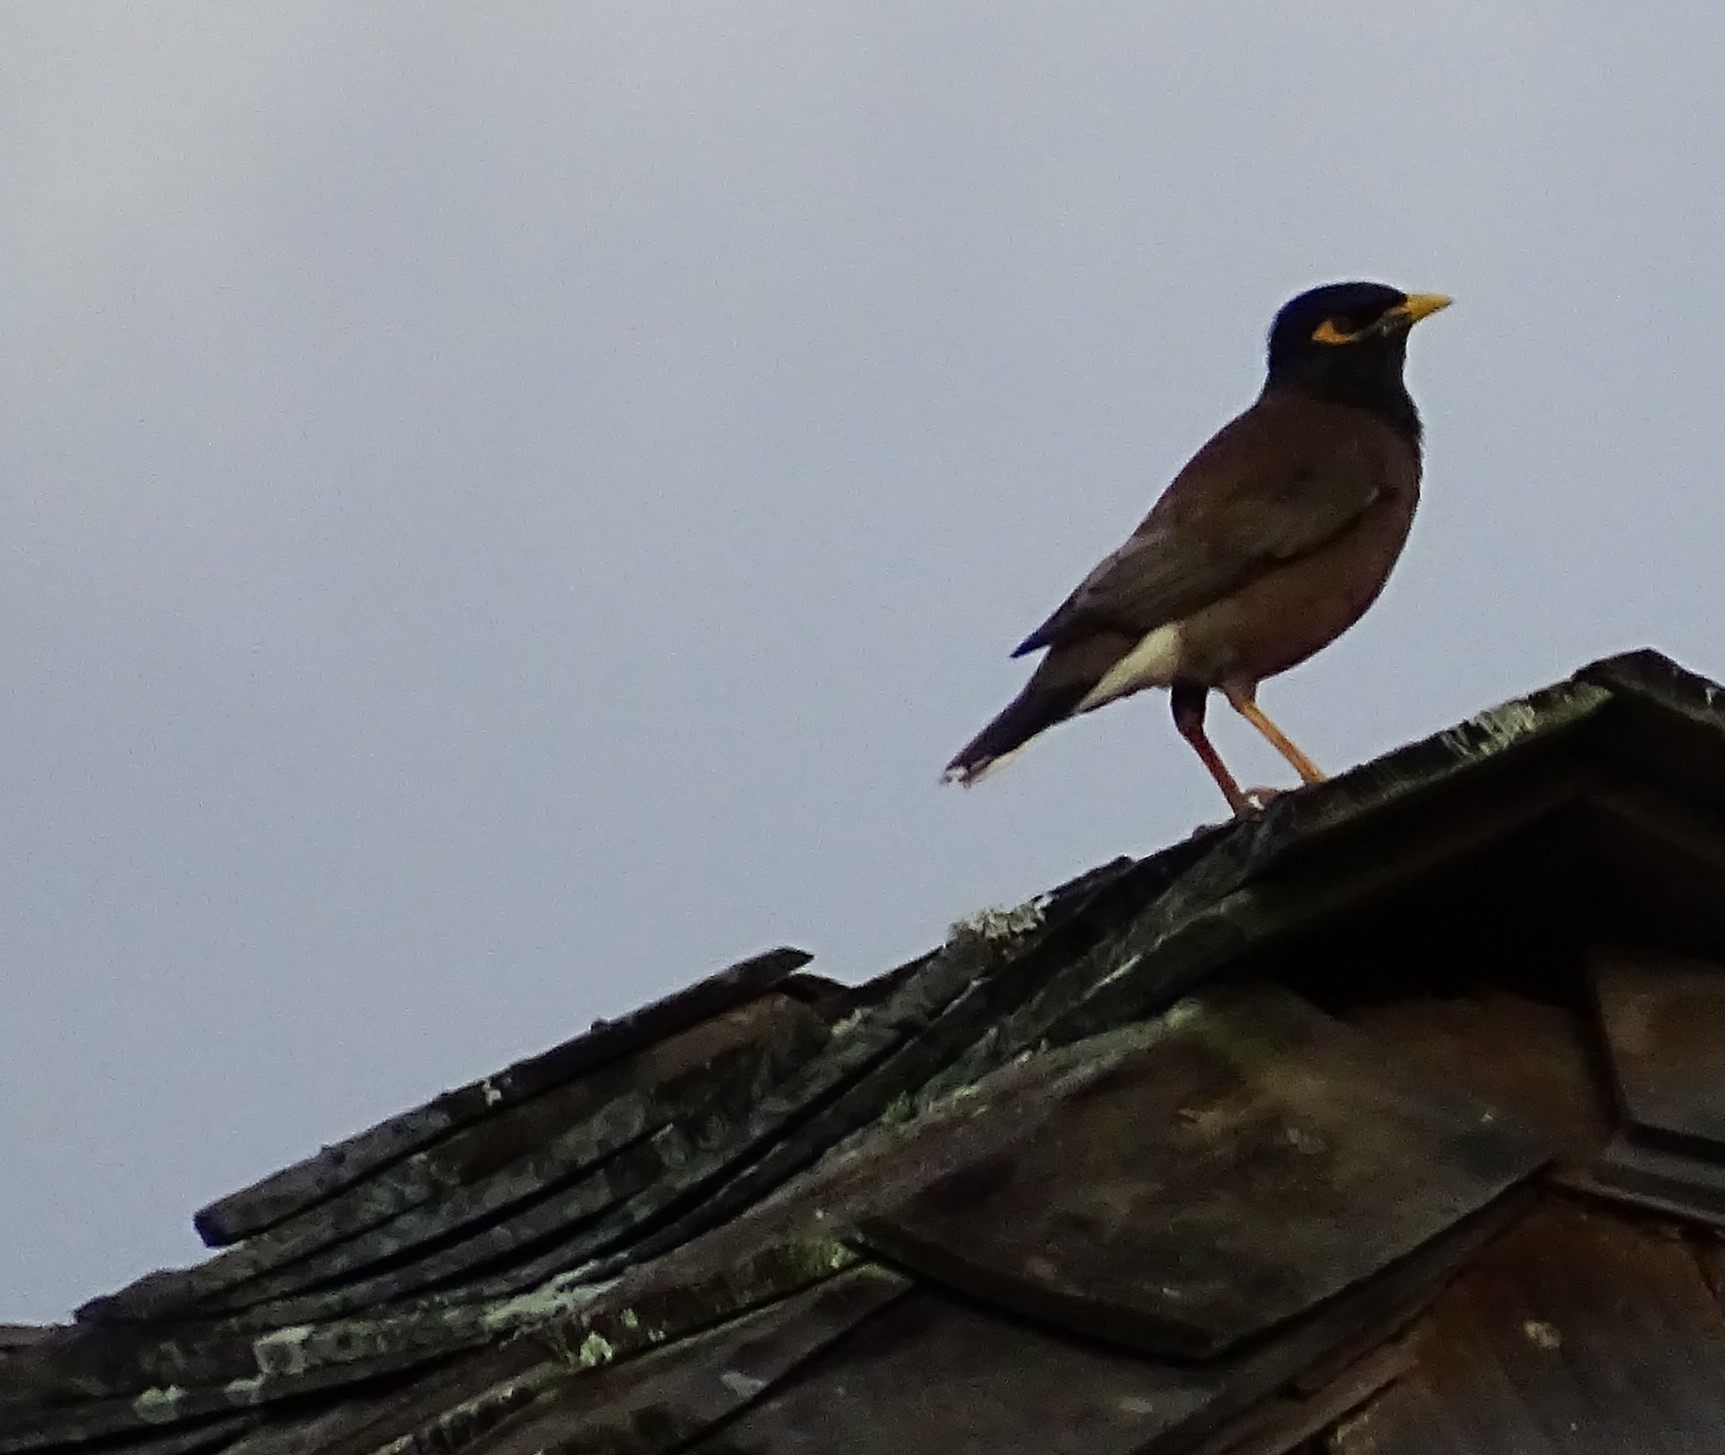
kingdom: Animalia
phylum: Chordata
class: Aves
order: Passeriformes
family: Sturnidae
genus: Acridotheres
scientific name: Acridotheres tristis
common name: Common myna
